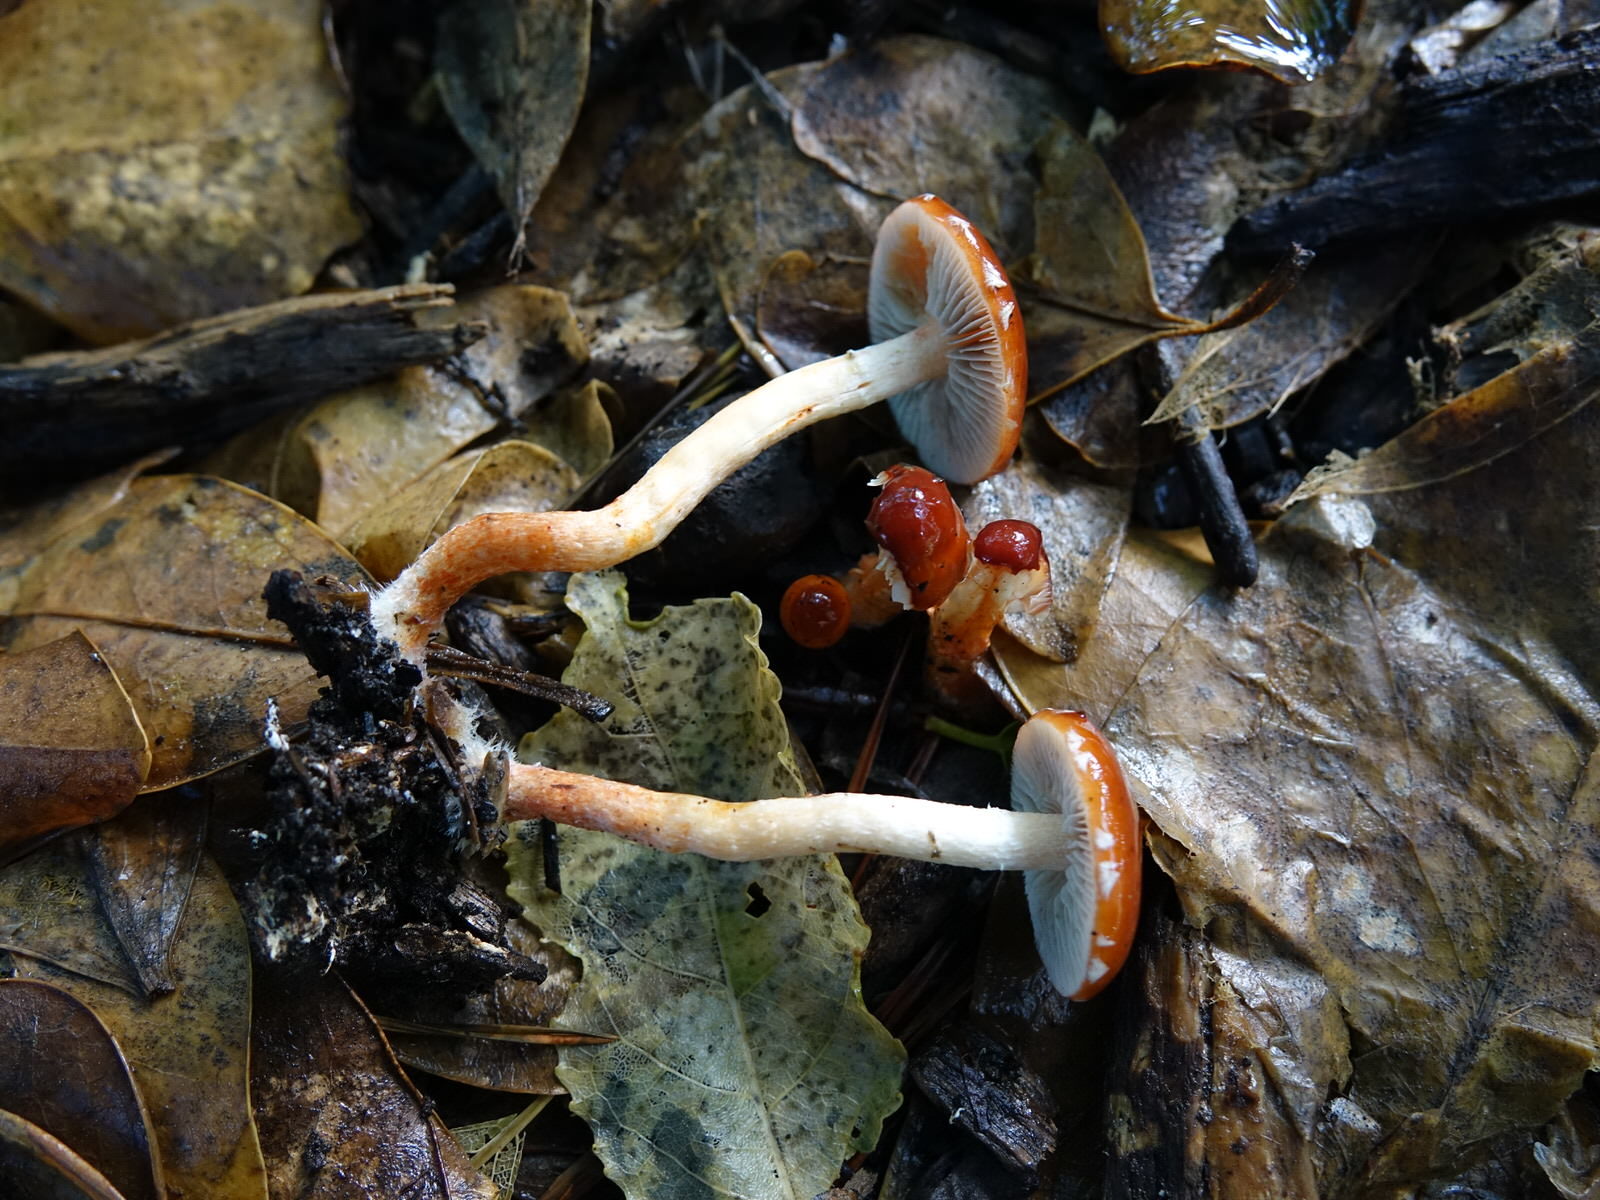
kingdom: Fungi
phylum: Basidiomycota
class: Agaricomycetes
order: Agaricales
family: Strophariaceae
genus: Leratiomyces
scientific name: Leratiomyces ceres
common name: Redlead roundhead
